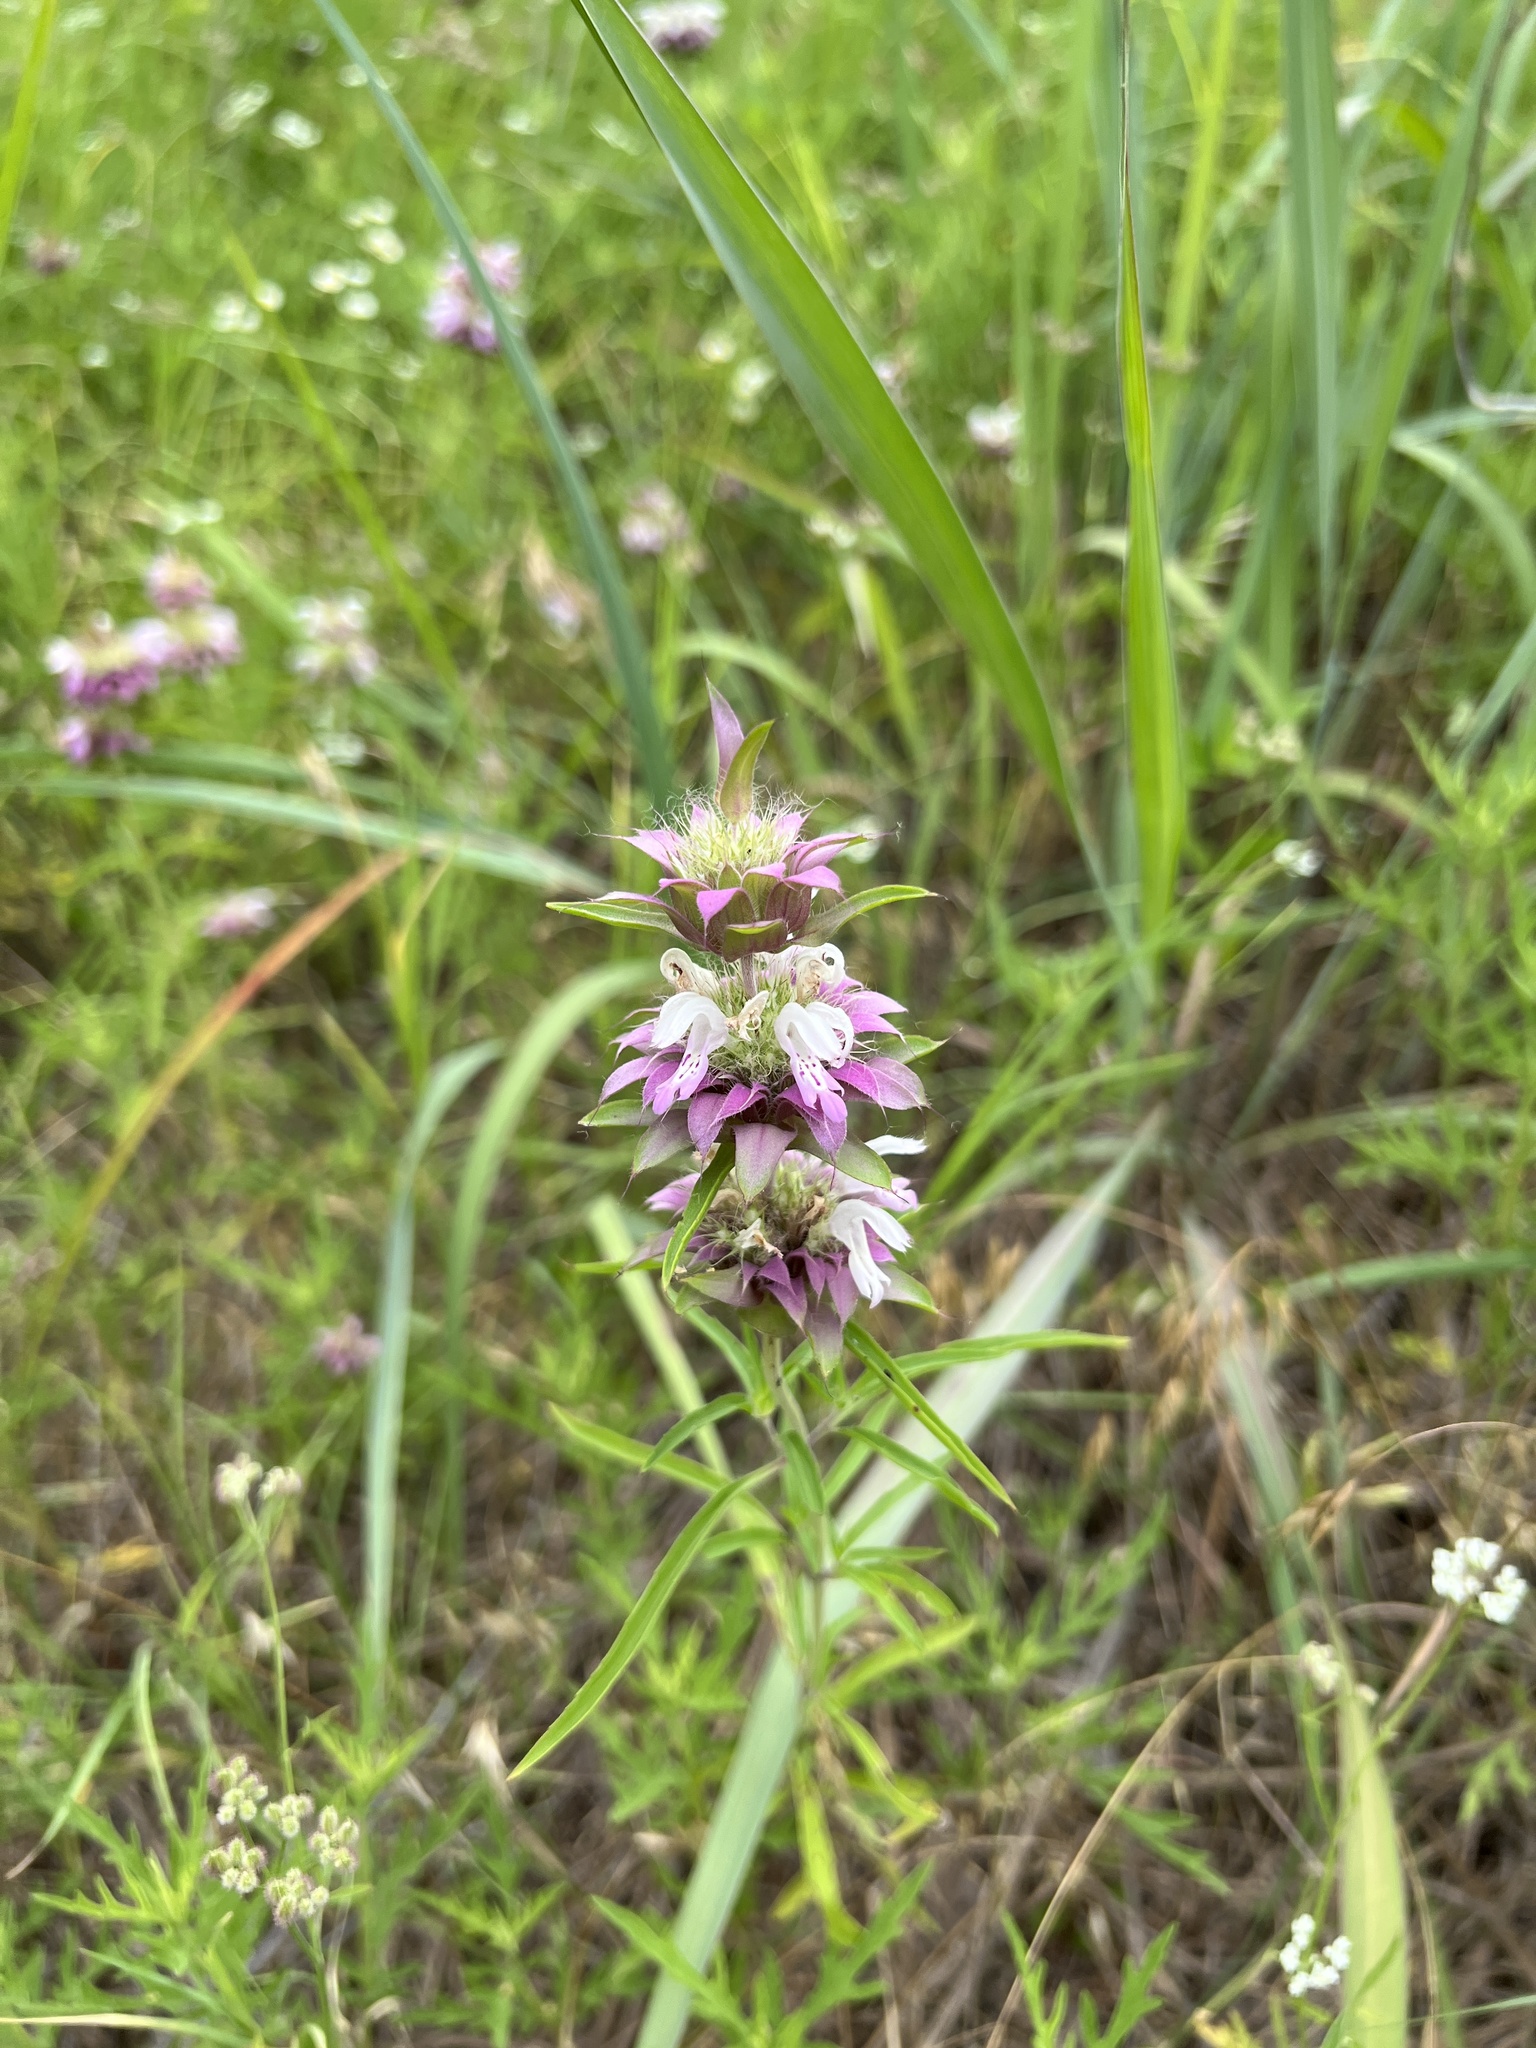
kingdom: Plantae
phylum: Tracheophyta
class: Magnoliopsida
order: Lamiales
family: Lamiaceae
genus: Monarda
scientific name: Monarda citriodora
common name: Lemon beebalm
